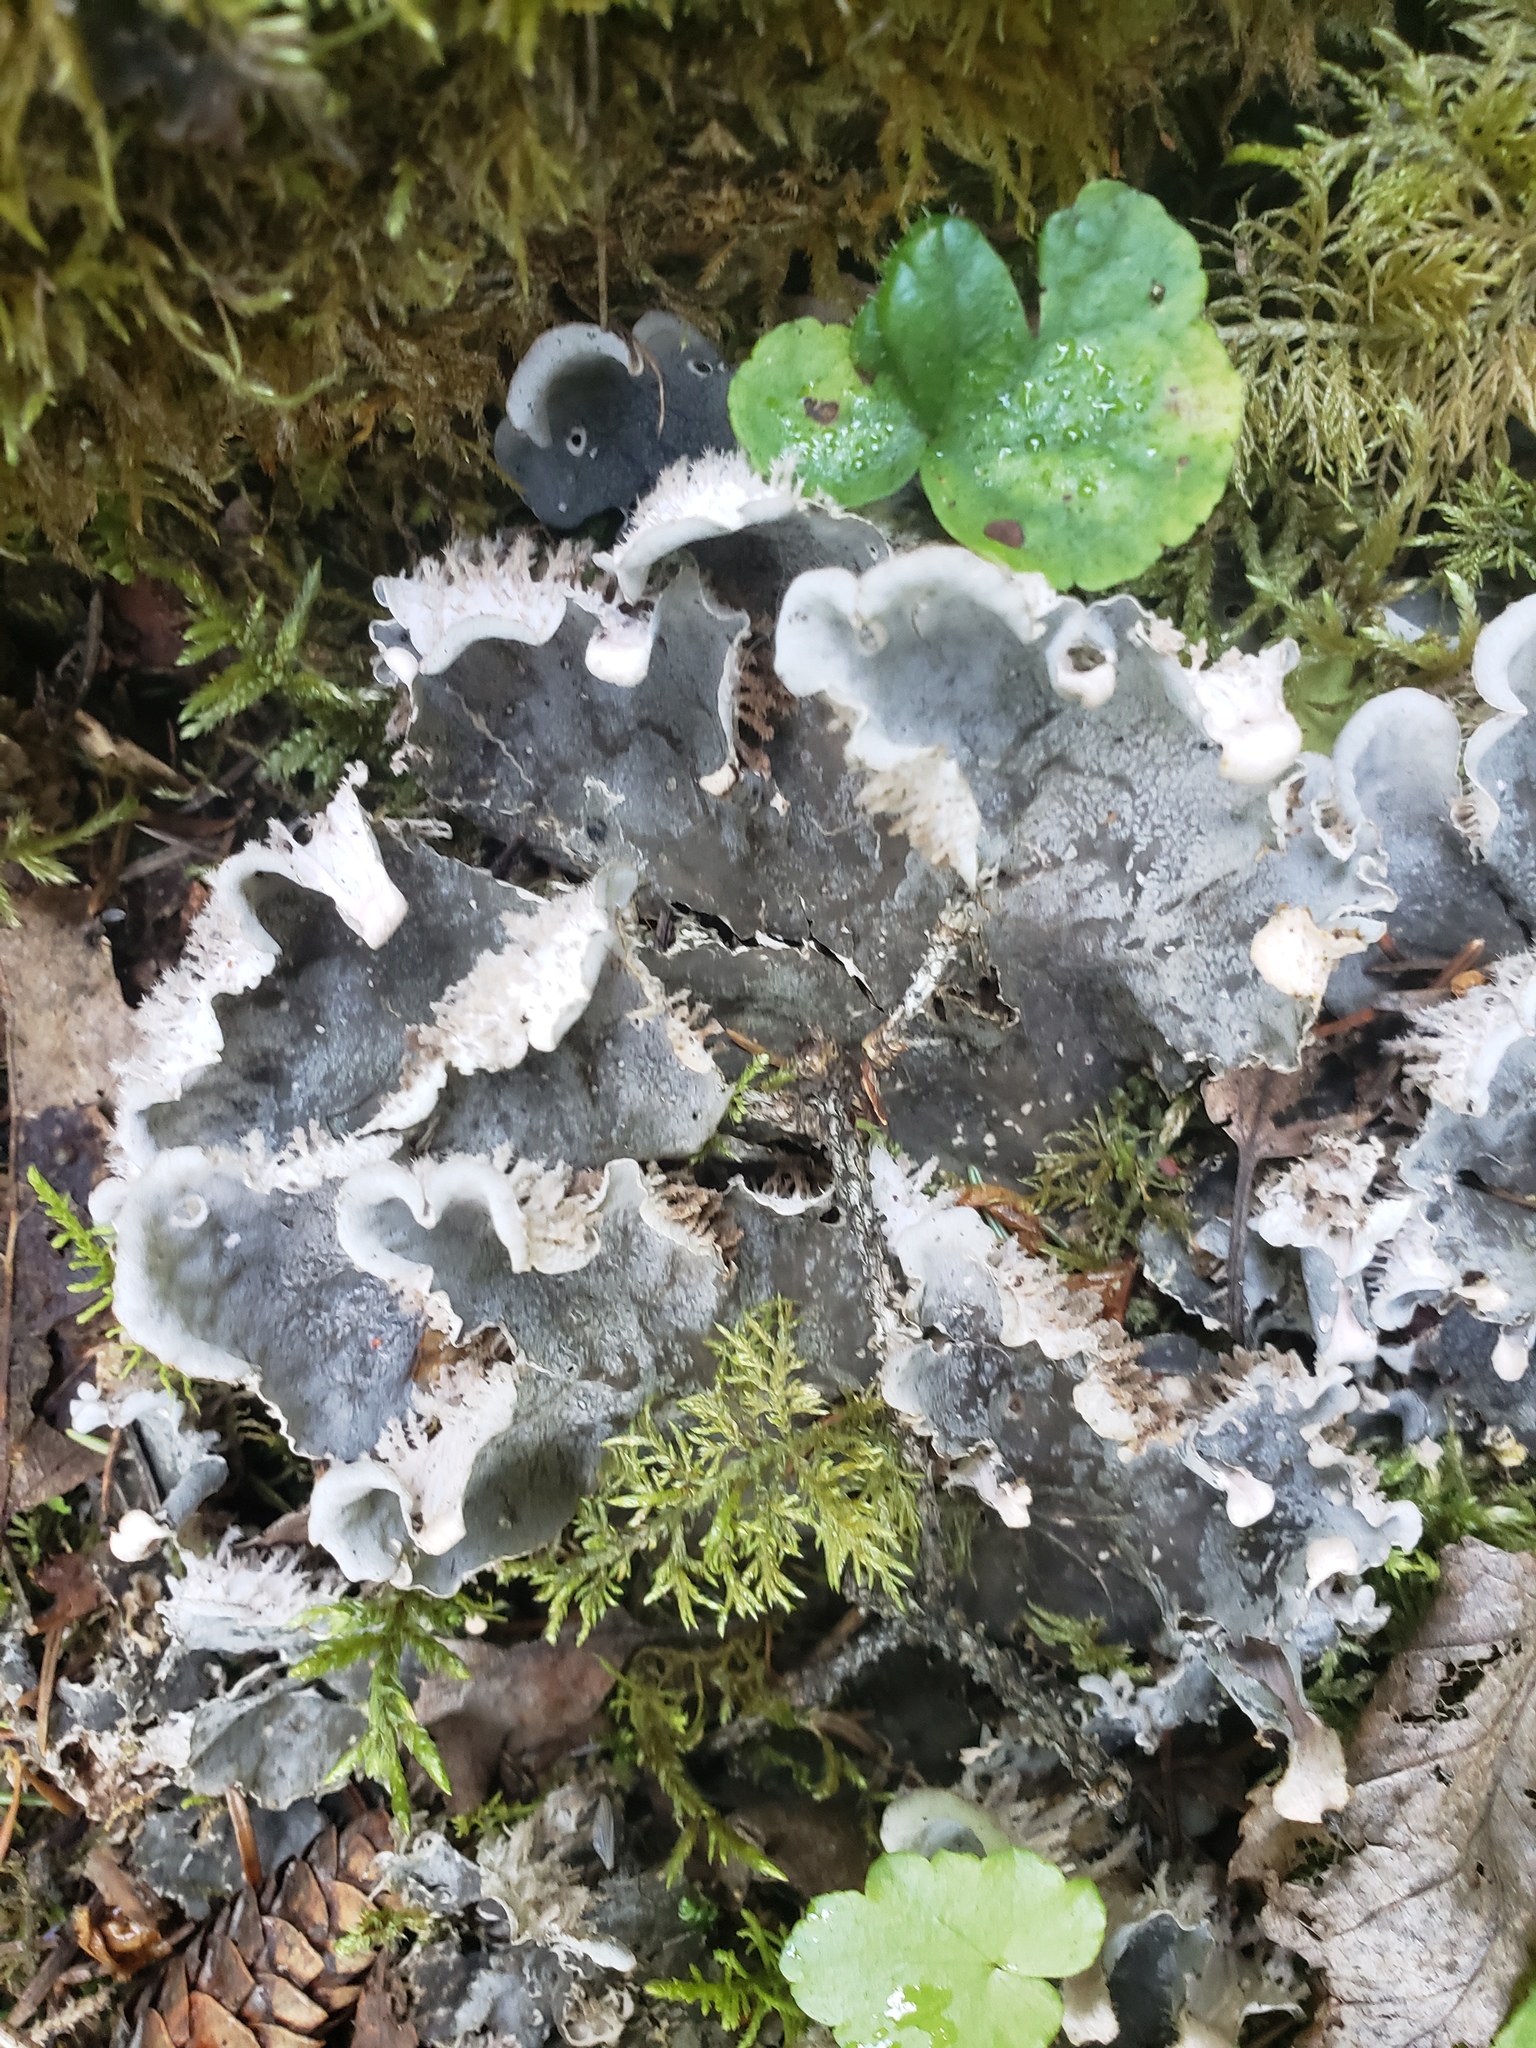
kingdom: Fungi
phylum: Ascomycota
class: Lecanoromycetes
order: Peltigerales
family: Peltigeraceae
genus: Peltigera
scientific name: Peltigera canina
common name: Dog pelt lichen
